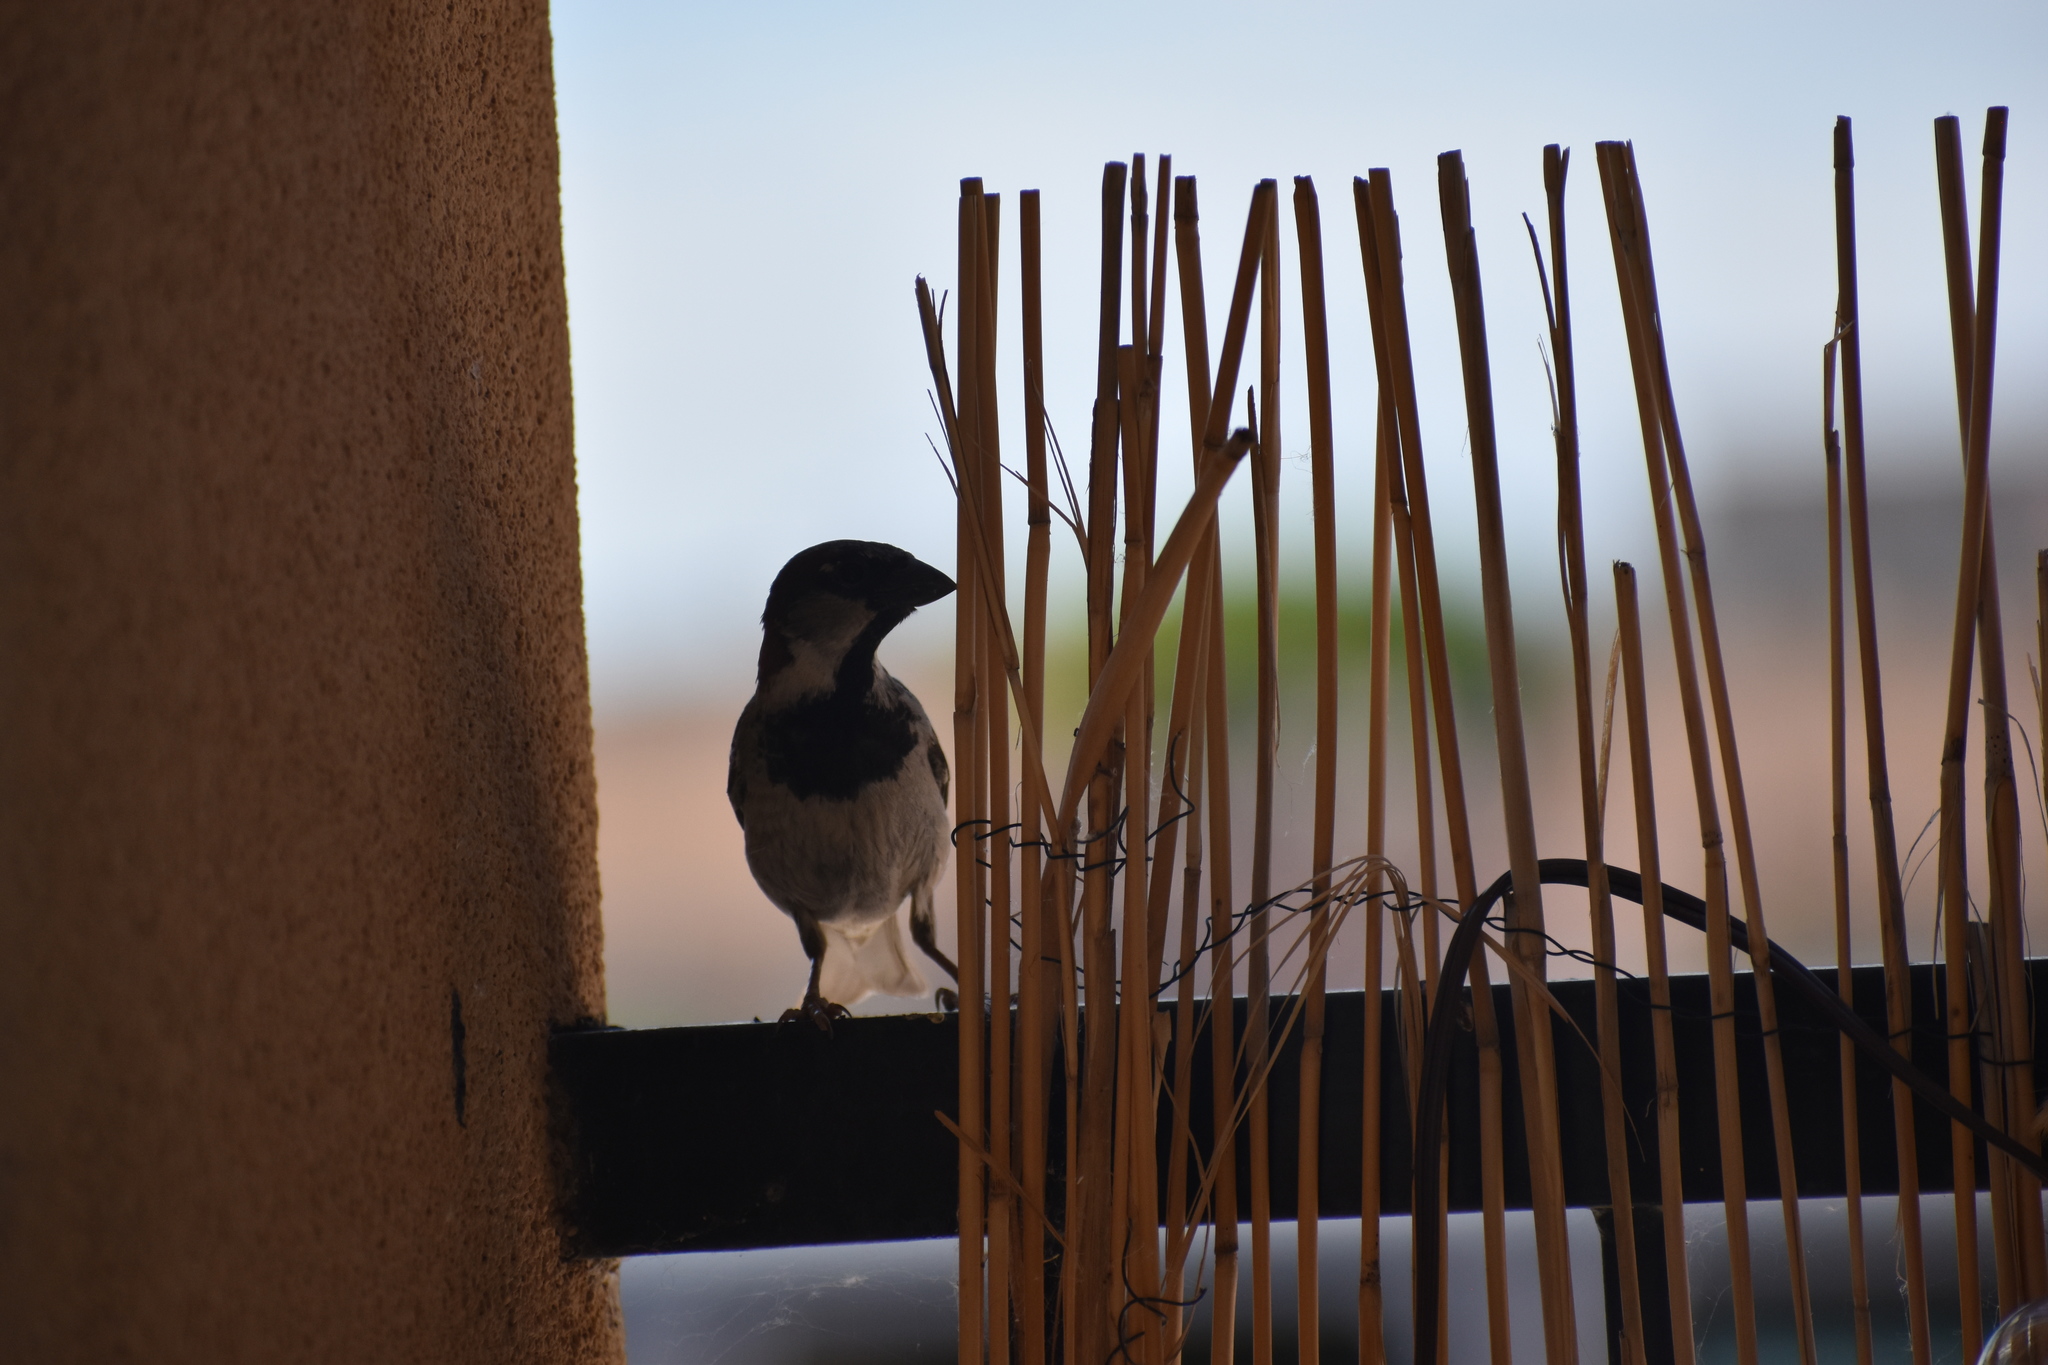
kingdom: Animalia
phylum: Chordata
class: Aves
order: Passeriformes
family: Passeridae
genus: Passer
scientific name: Passer domesticus
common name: House sparrow
